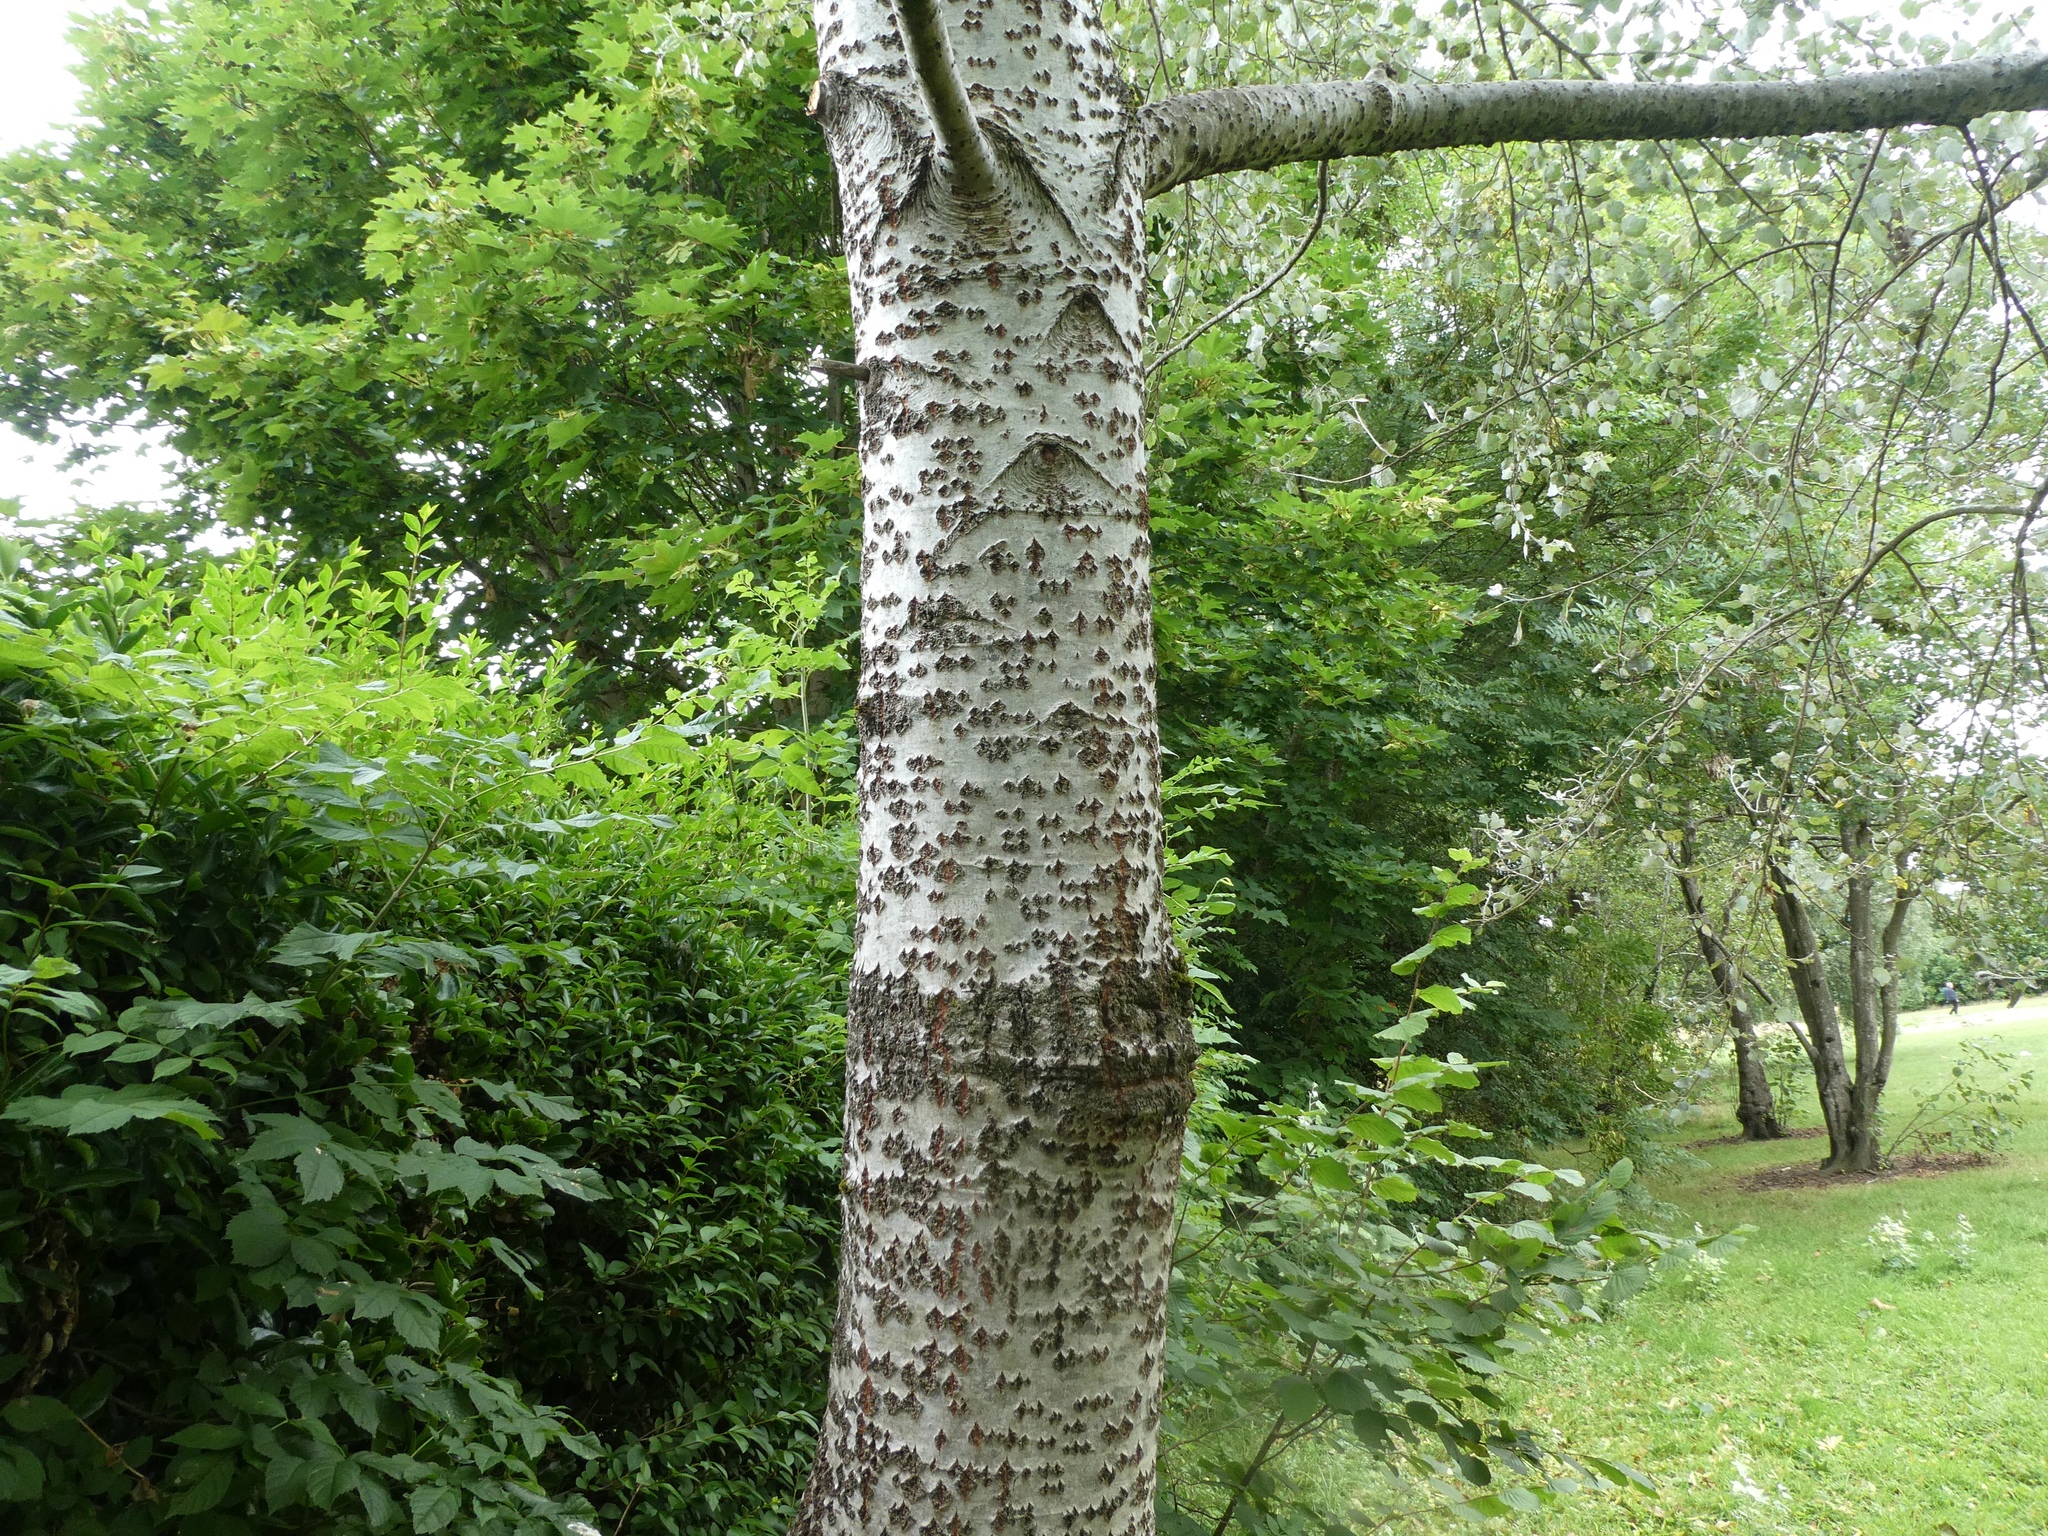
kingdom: Plantae
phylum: Tracheophyta
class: Magnoliopsida
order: Malpighiales
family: Salicaceae
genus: Populus
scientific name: Populus alba
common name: White poplar
